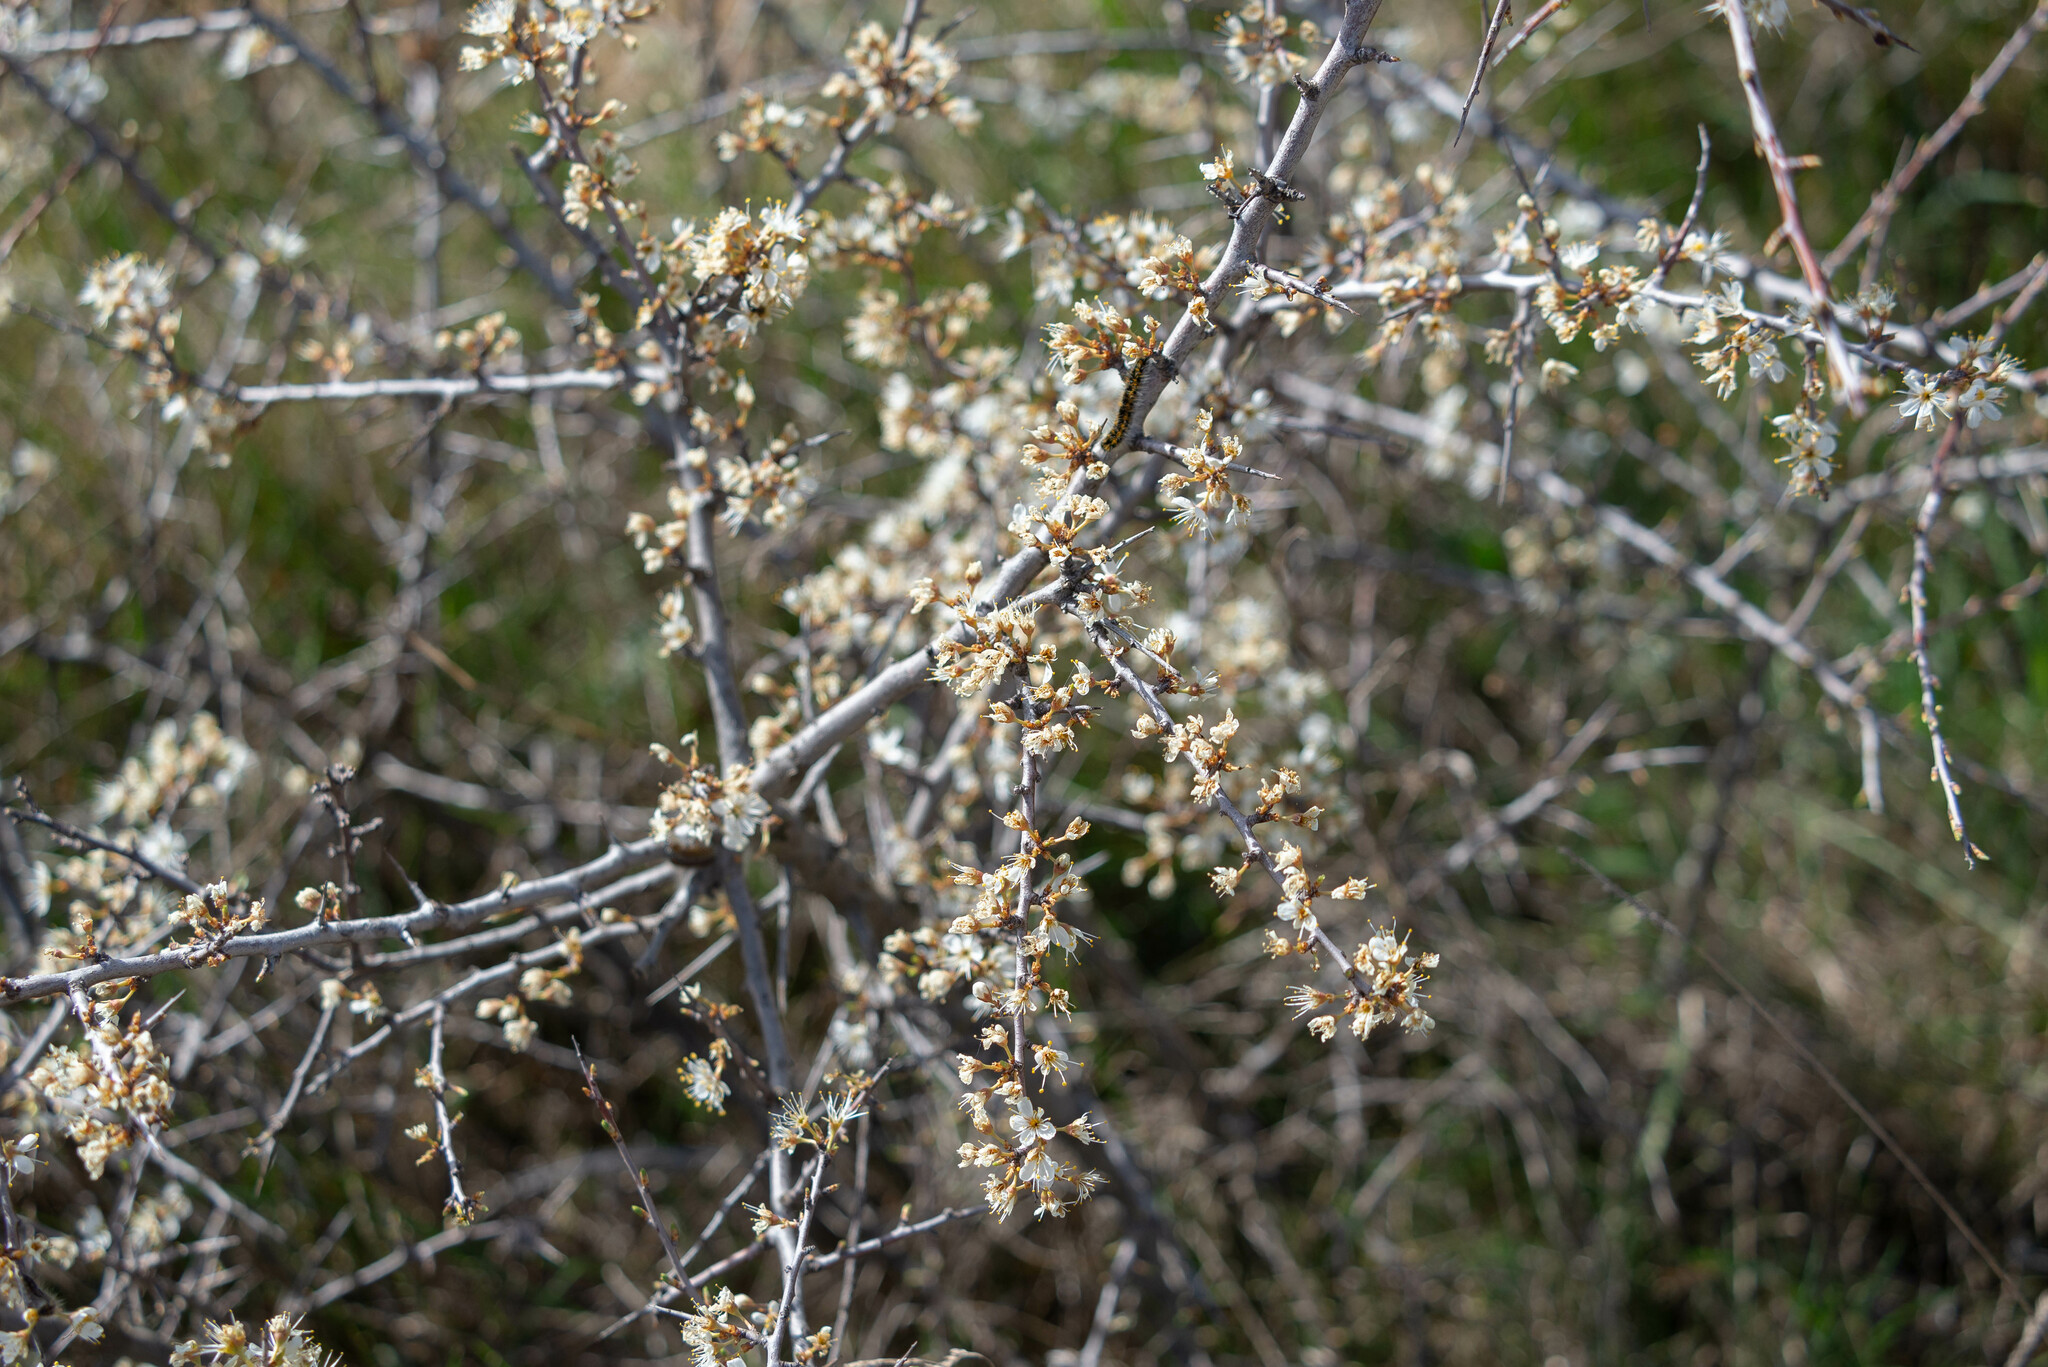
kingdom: Animalia
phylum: Arthropoda
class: Insecta
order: Lepidoptera
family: Pieridae
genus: Aporia
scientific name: Aporia crataegi
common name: Black-veined white
